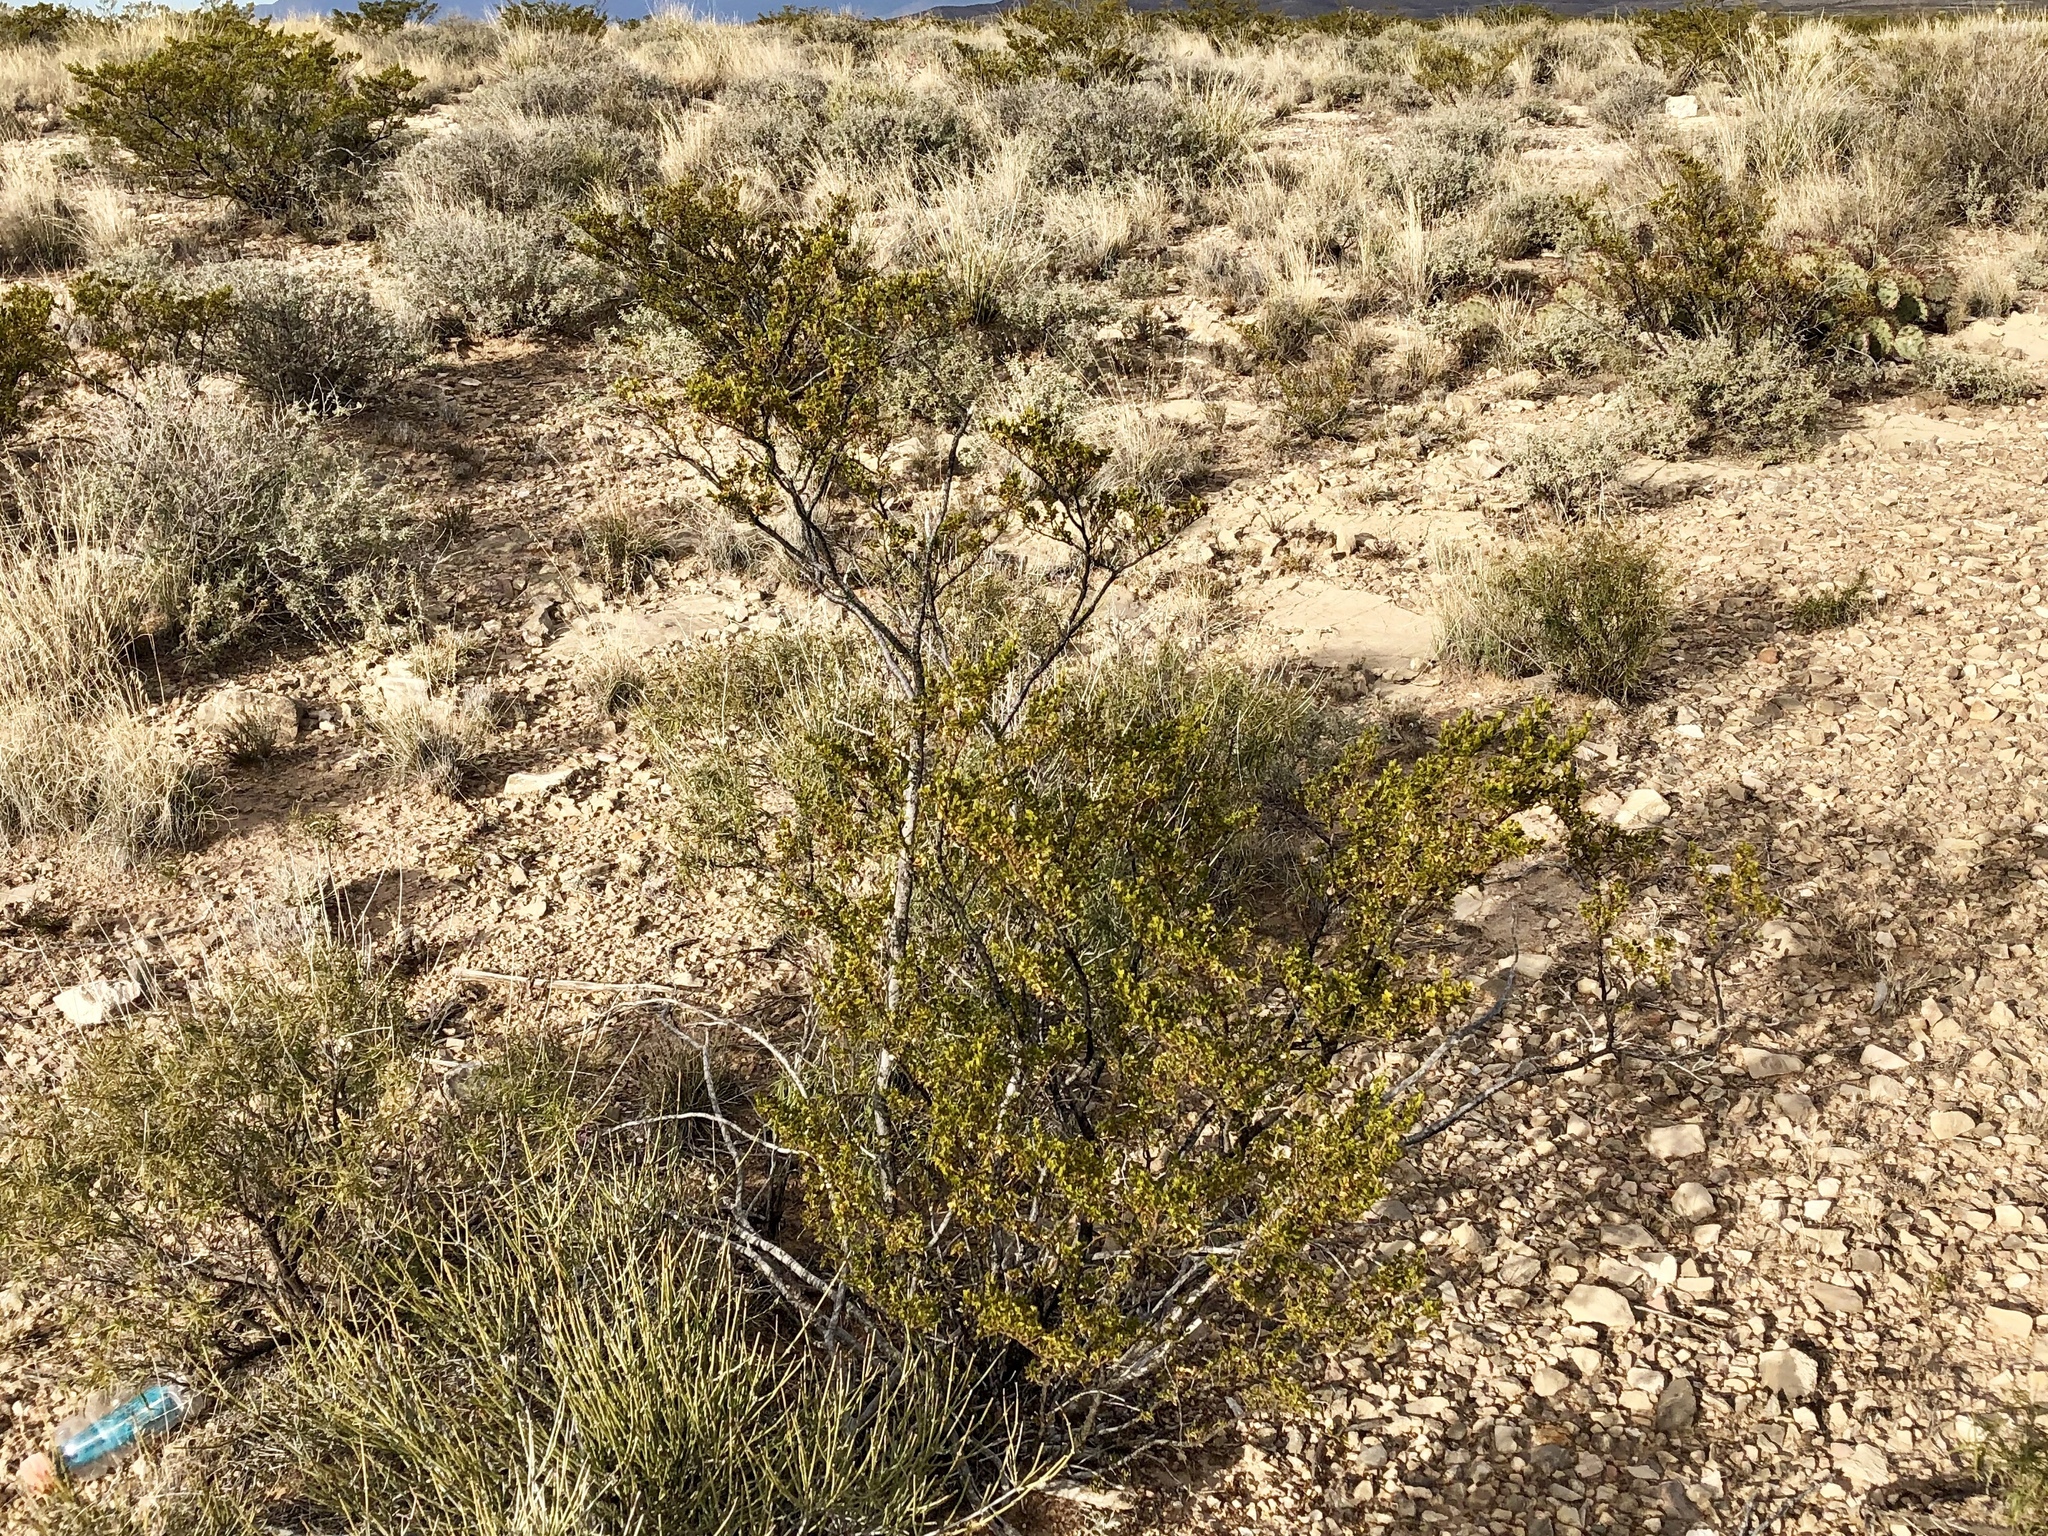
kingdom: Plantae
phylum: Tracheophyta
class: Magnoliopsida
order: Zygophyllales
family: Zygophyllaceae
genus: Larrea
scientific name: Larrea tridentata
